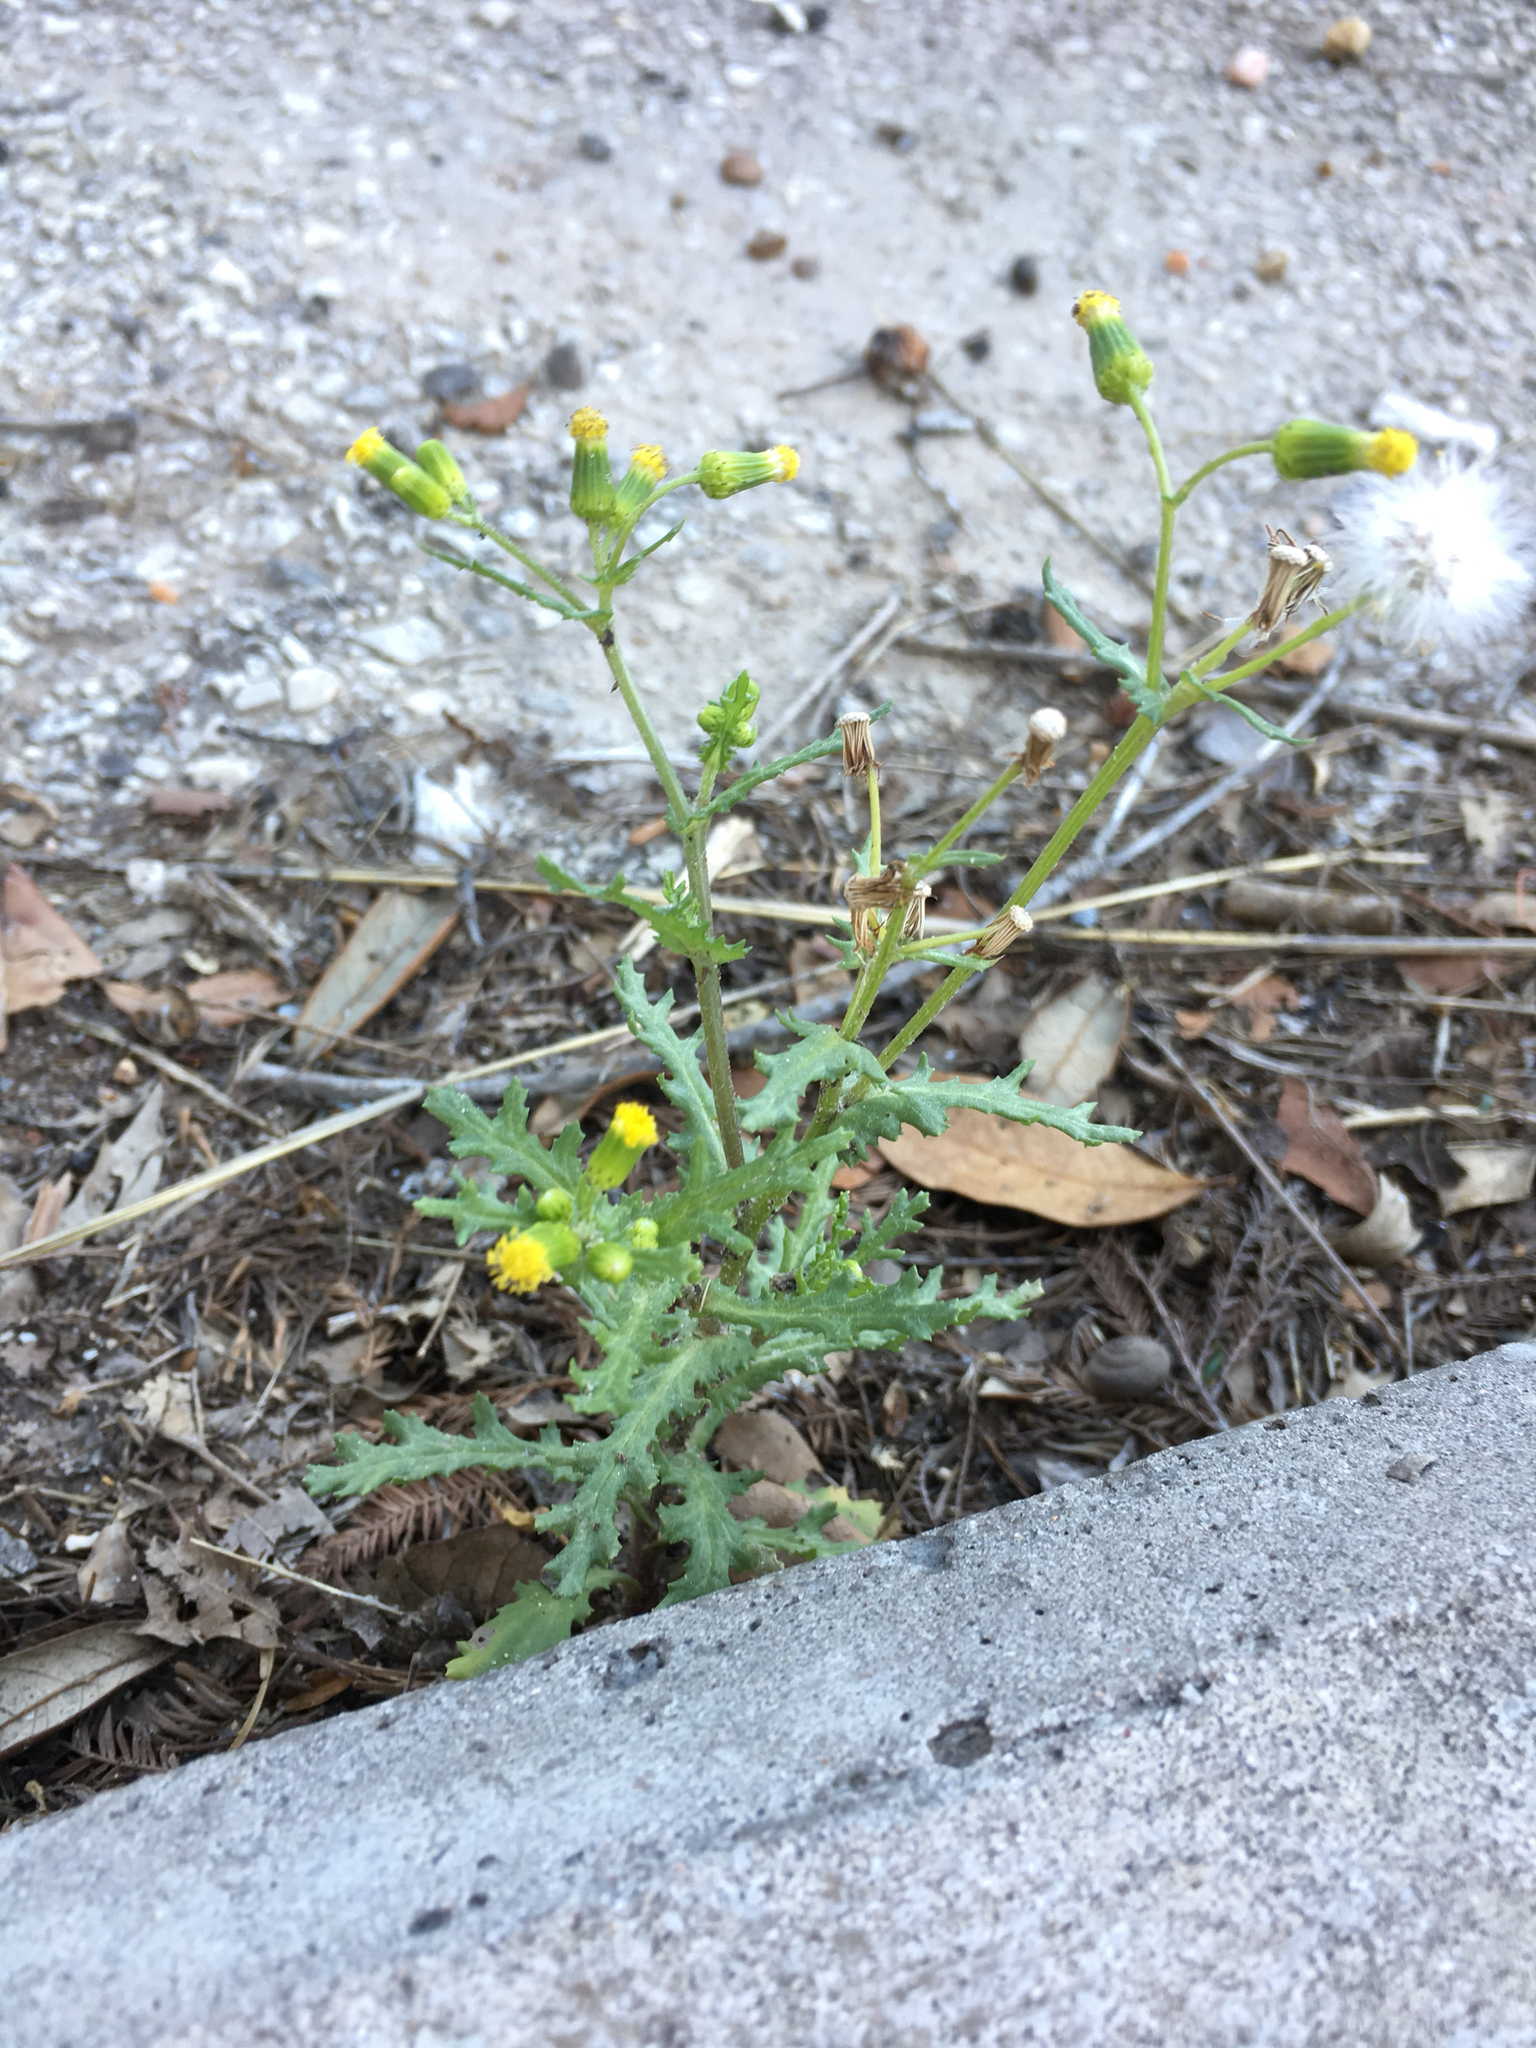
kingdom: Plantae
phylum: Tracheophyta
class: Magnoliopsida
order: Asterales
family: Asteraceae
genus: Senecio
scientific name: Senecio vulgaris
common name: Old-man-in-the-spring
